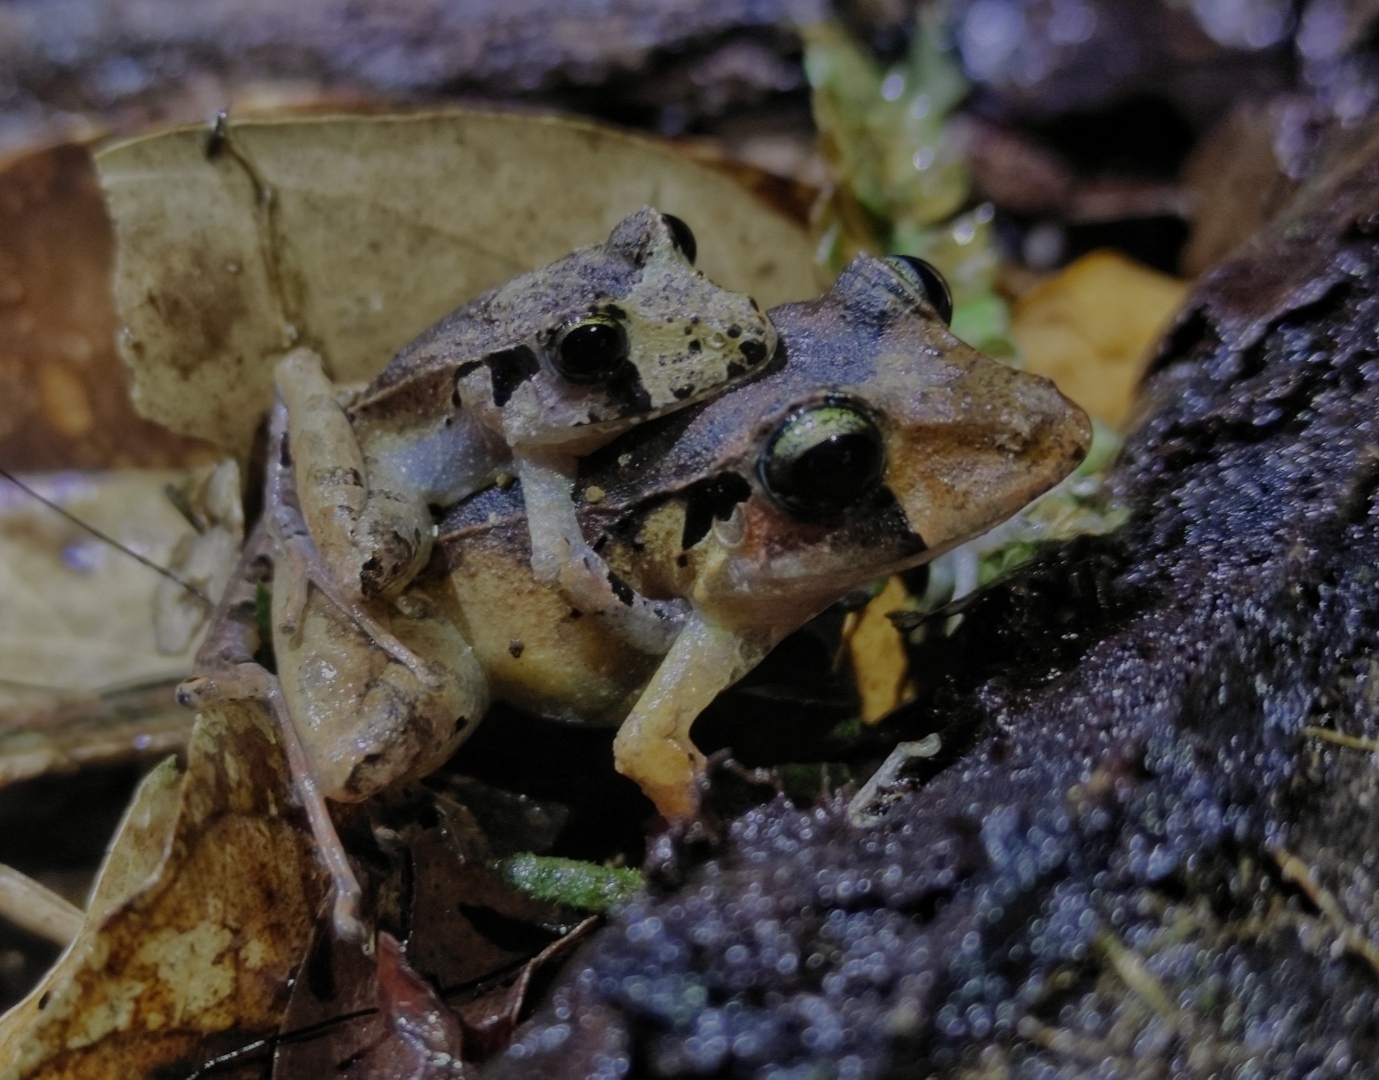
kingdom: Animalia
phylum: Chordata
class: Amphibia
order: Anura
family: Brachycephalidae
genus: Ischnocnema
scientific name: Ischnocnema henselii
